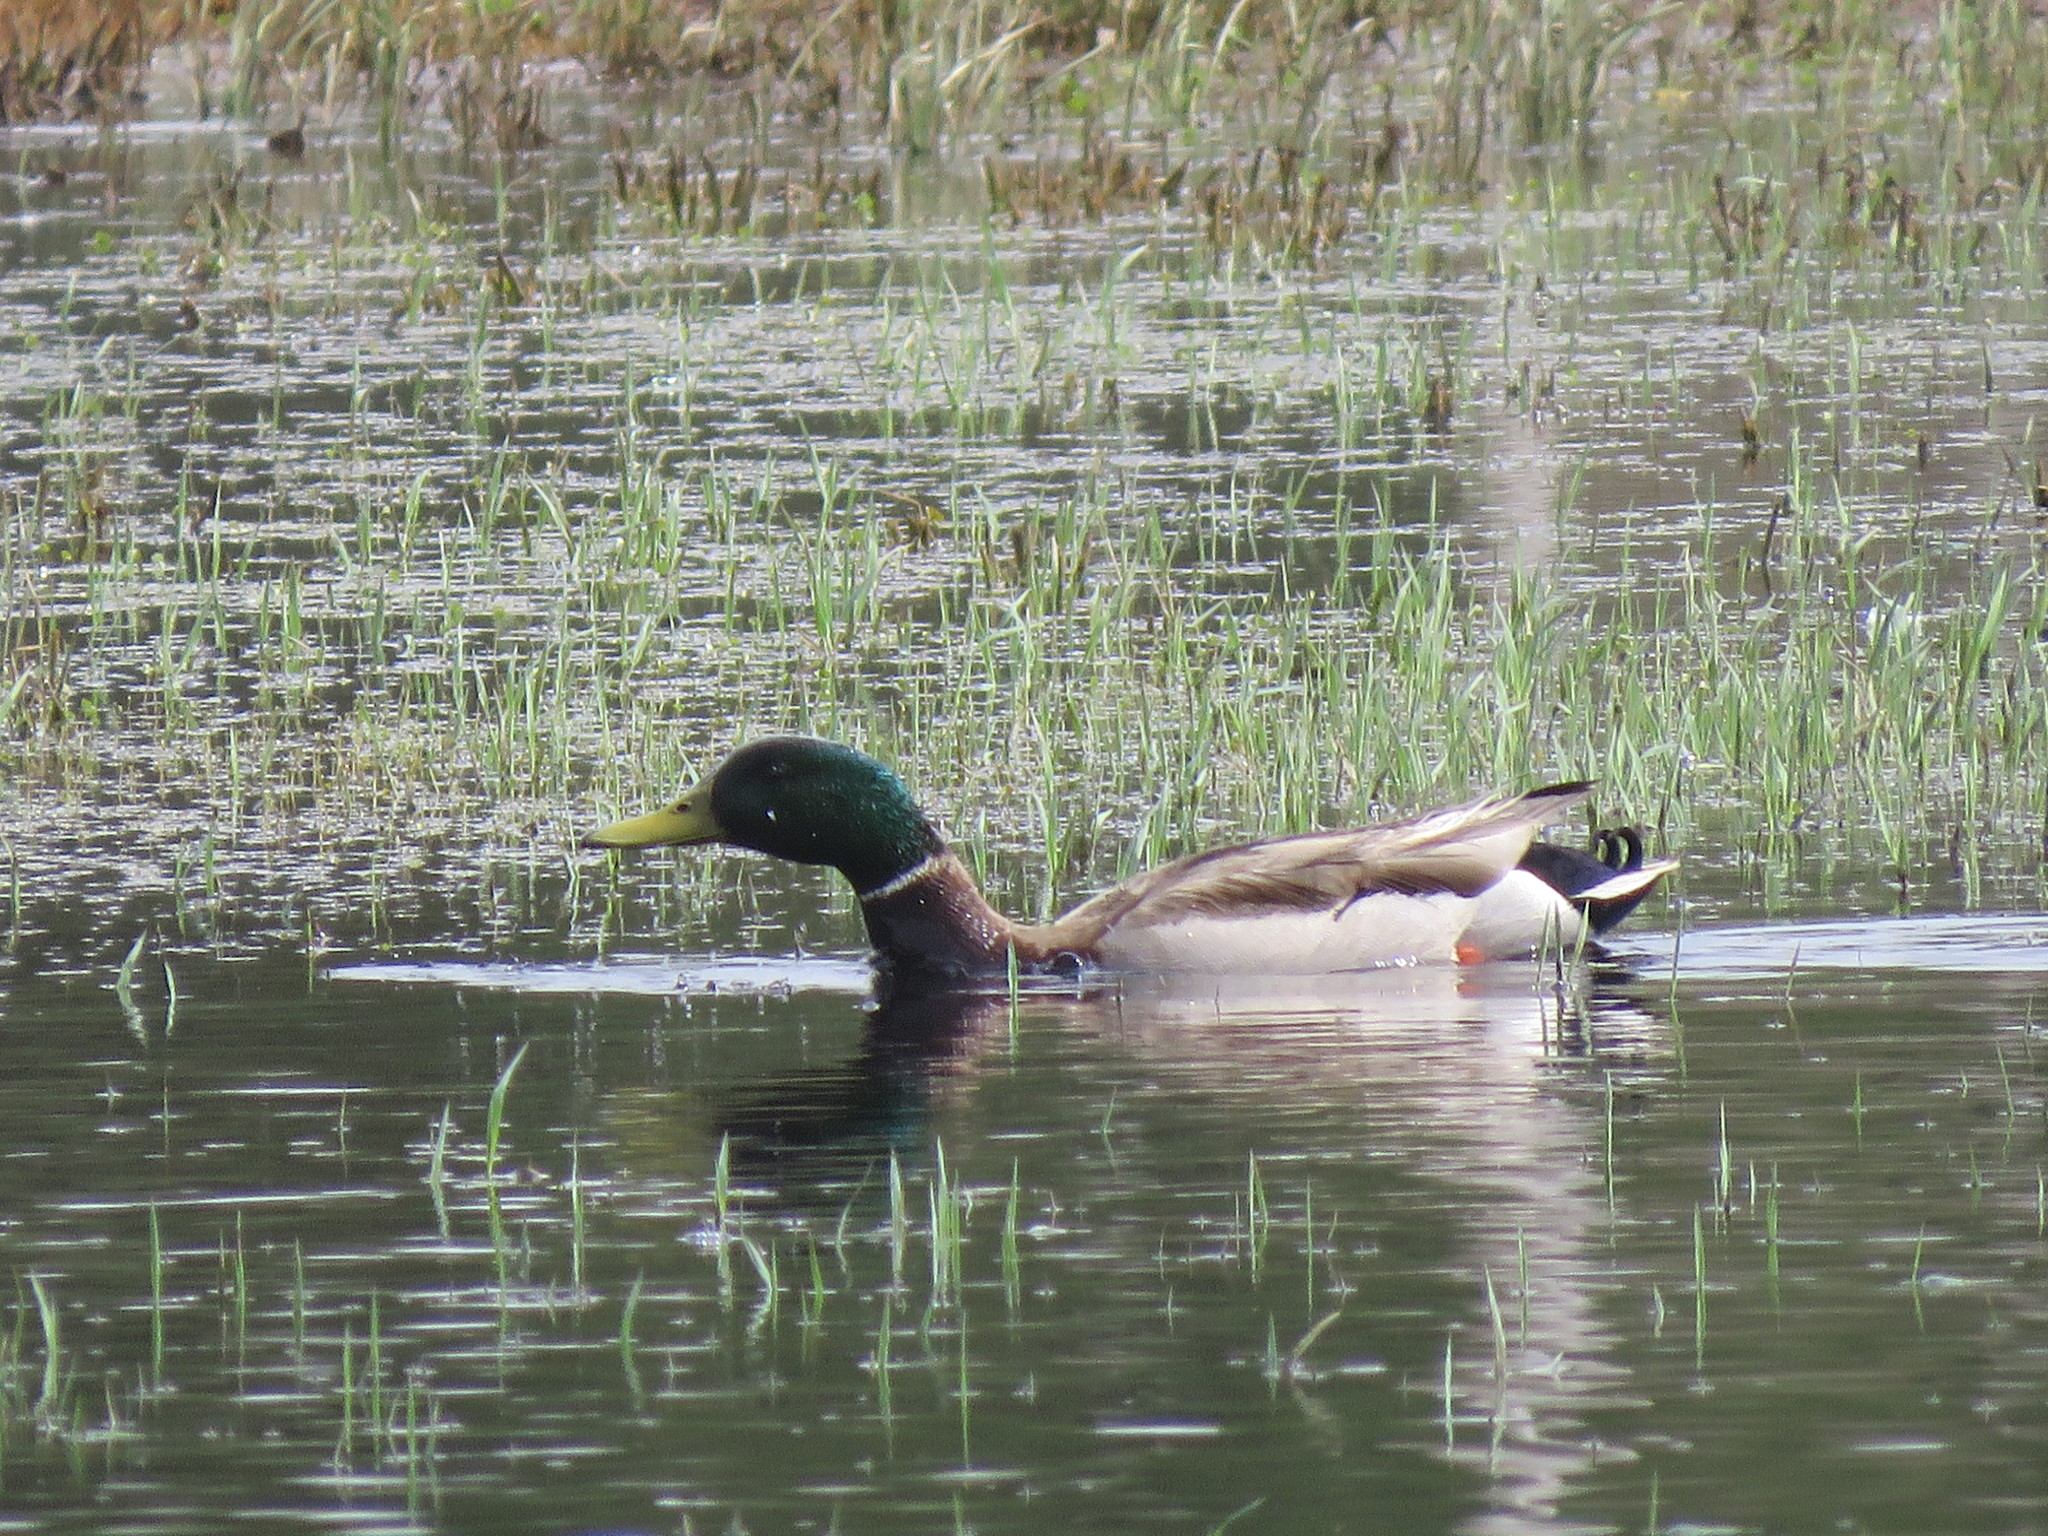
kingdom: Animalia
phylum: Chordata
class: Aves
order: Anseriformes
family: Anatidae
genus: Anas
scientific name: Anas platyrhynchos
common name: Mallard
